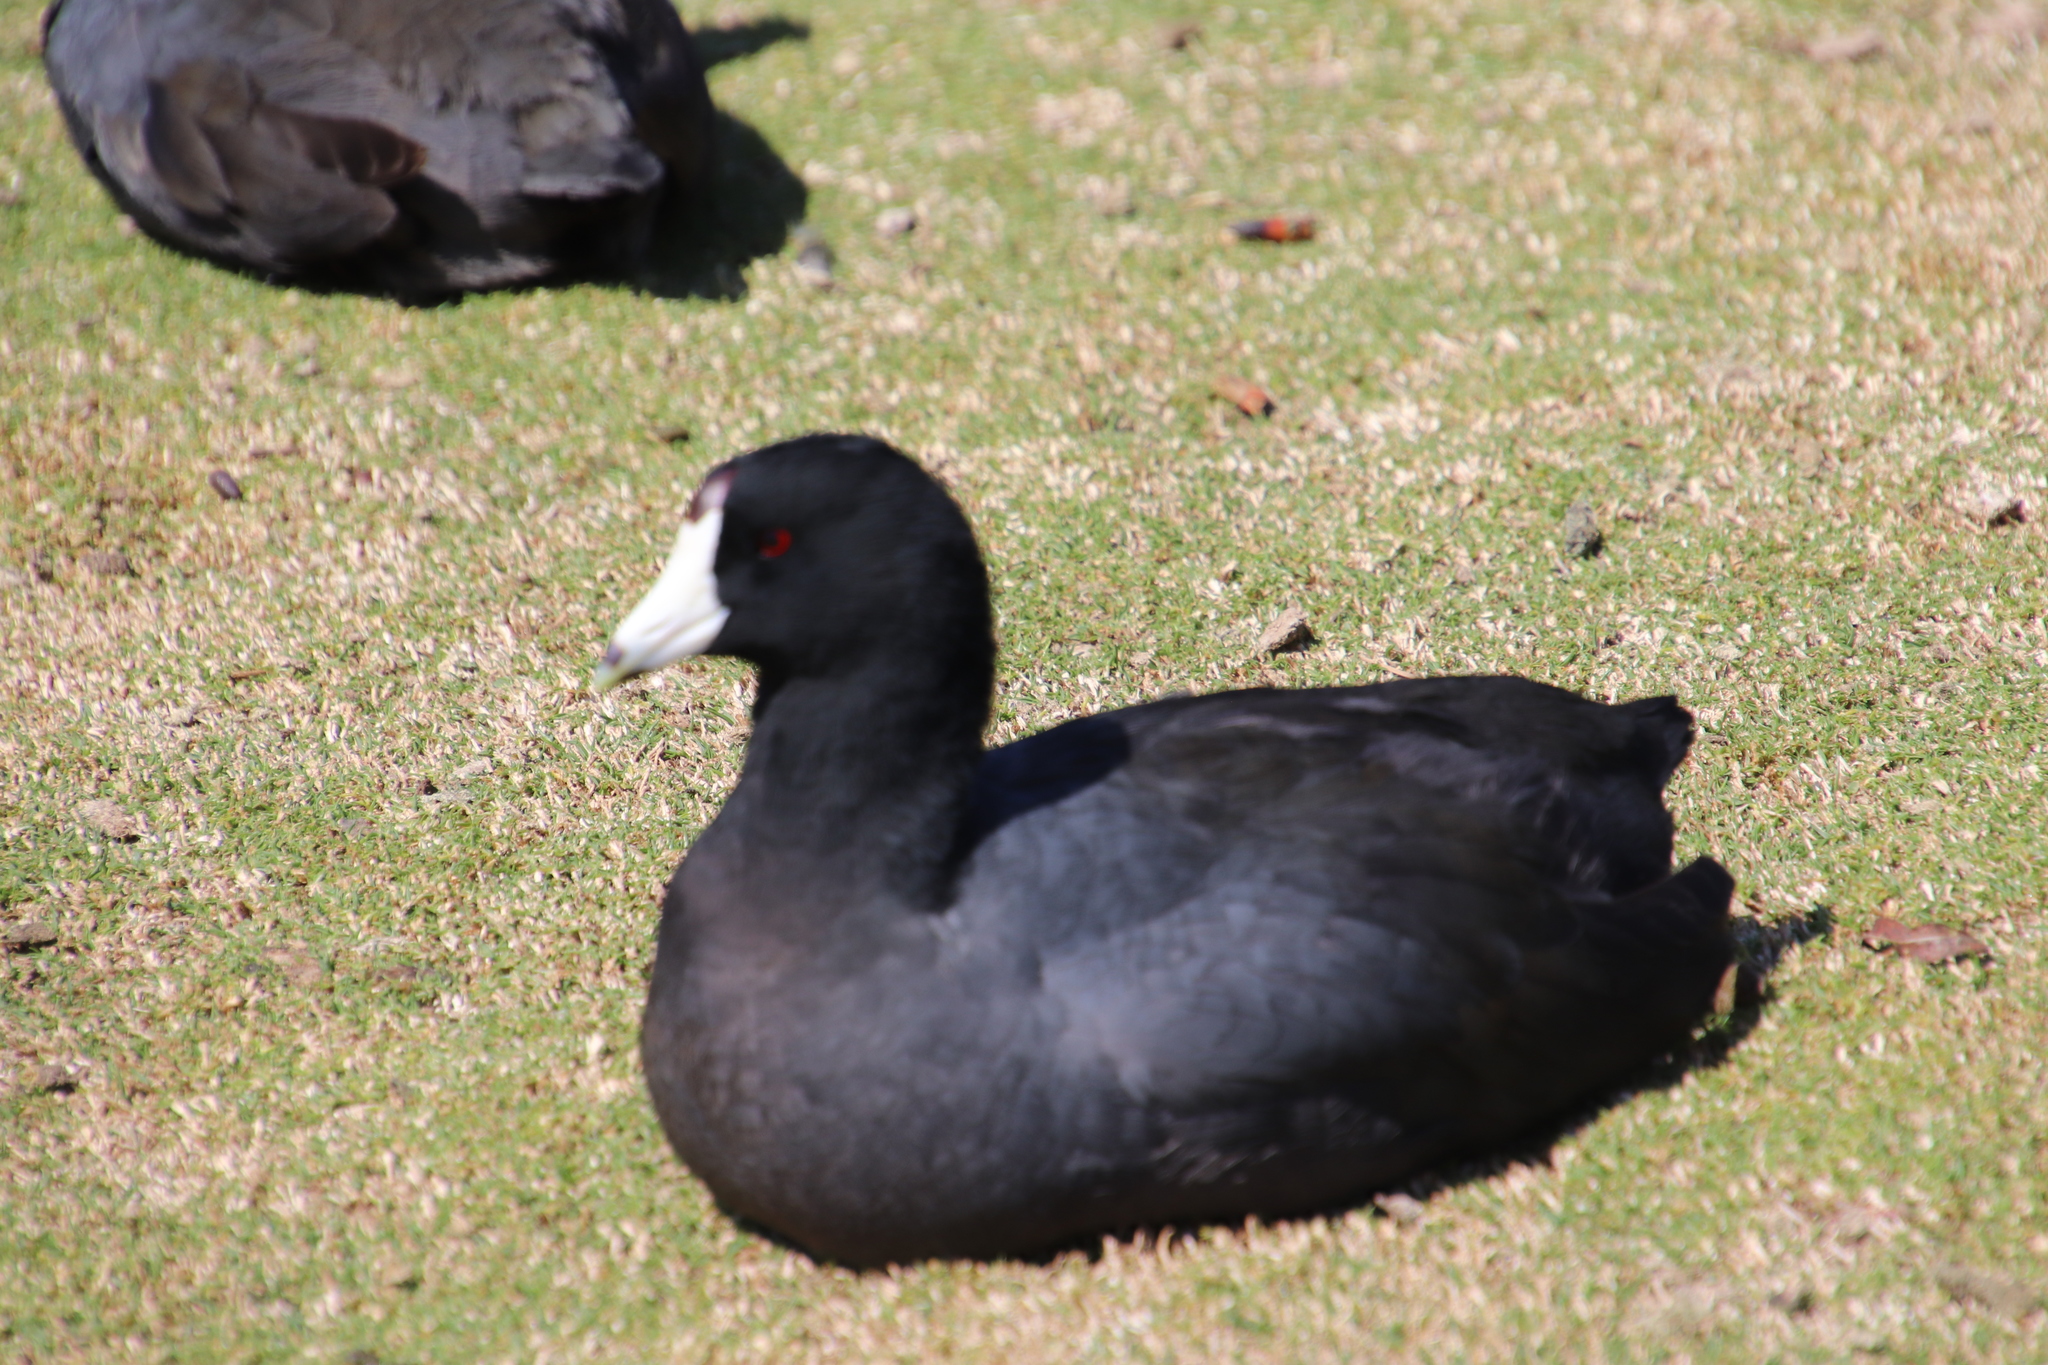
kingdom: Animalia
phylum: Chordata
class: Aves
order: Gruiformes
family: Rallidae
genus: Fulica
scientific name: Fulica americana
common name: American coot
